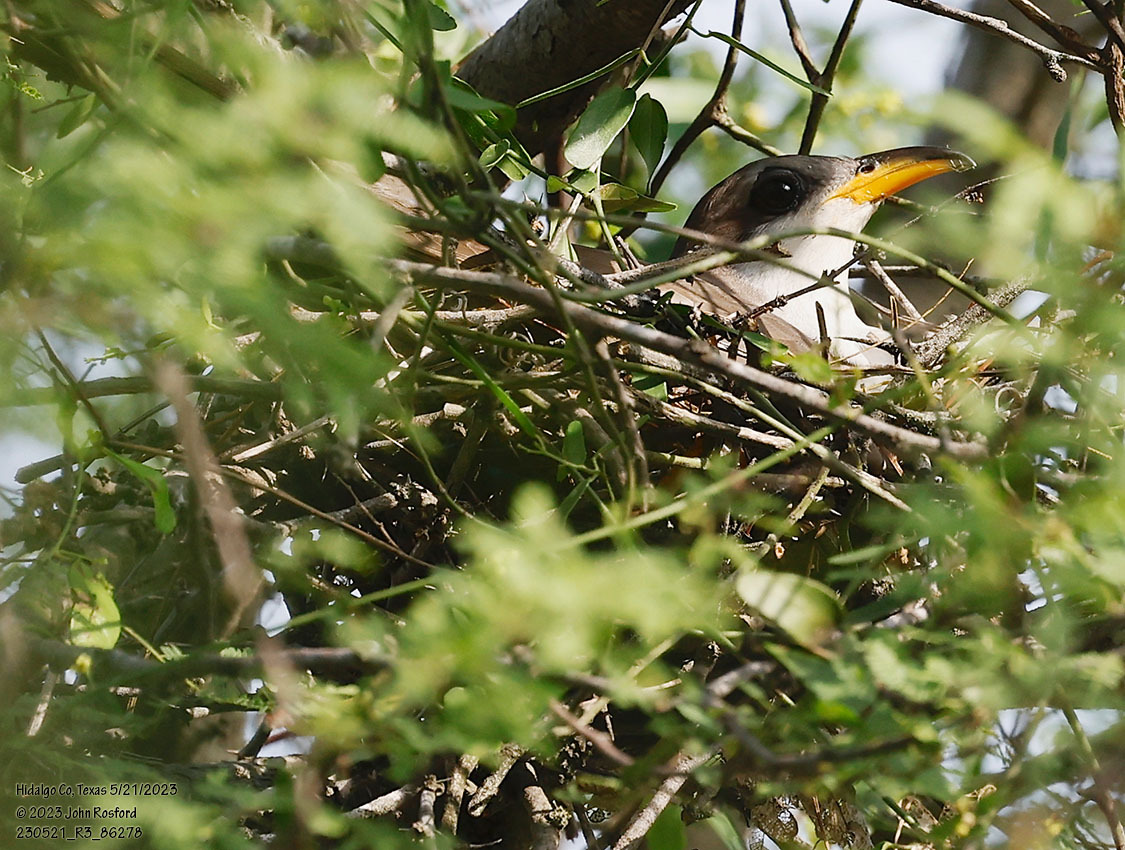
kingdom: Animalia
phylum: Chordata
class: Aves
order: Cuculiformes
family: Cuculidae
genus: Coccyzus
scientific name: Coccyzus americanus
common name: Yellow-billed cuckoo
